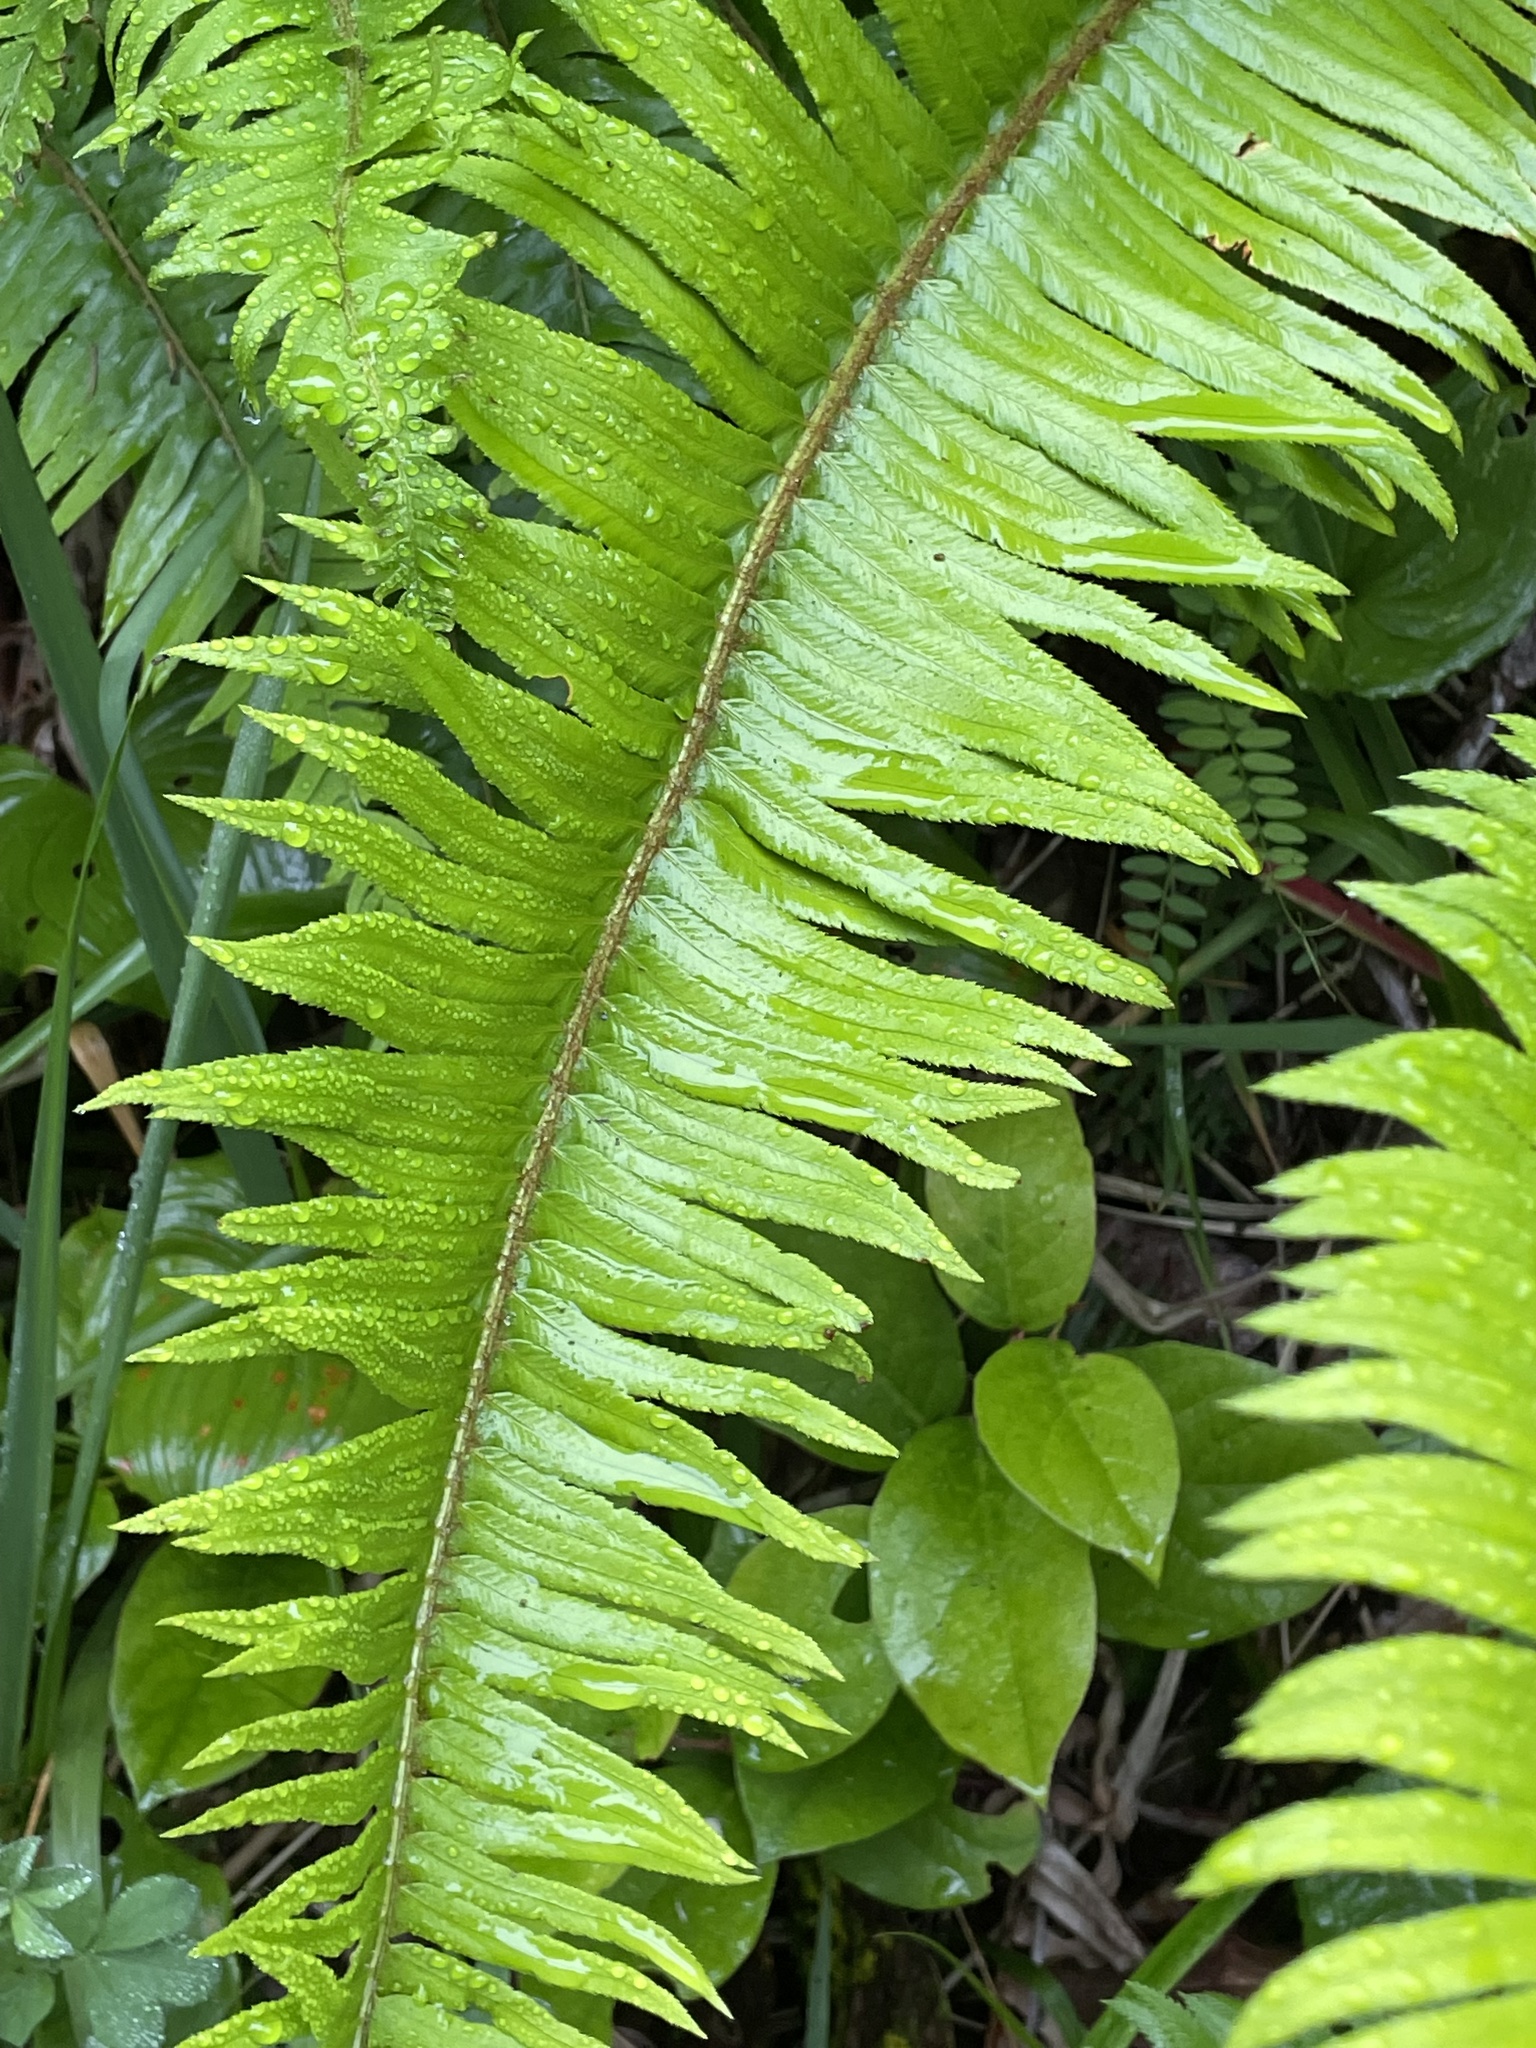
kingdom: Plantae
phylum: Tracheophyta
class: Polypodiopsida
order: Polypodiales
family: Dryopteridaceae
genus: Polystichum
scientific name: Polystichum munitum
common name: Western sword-fern
